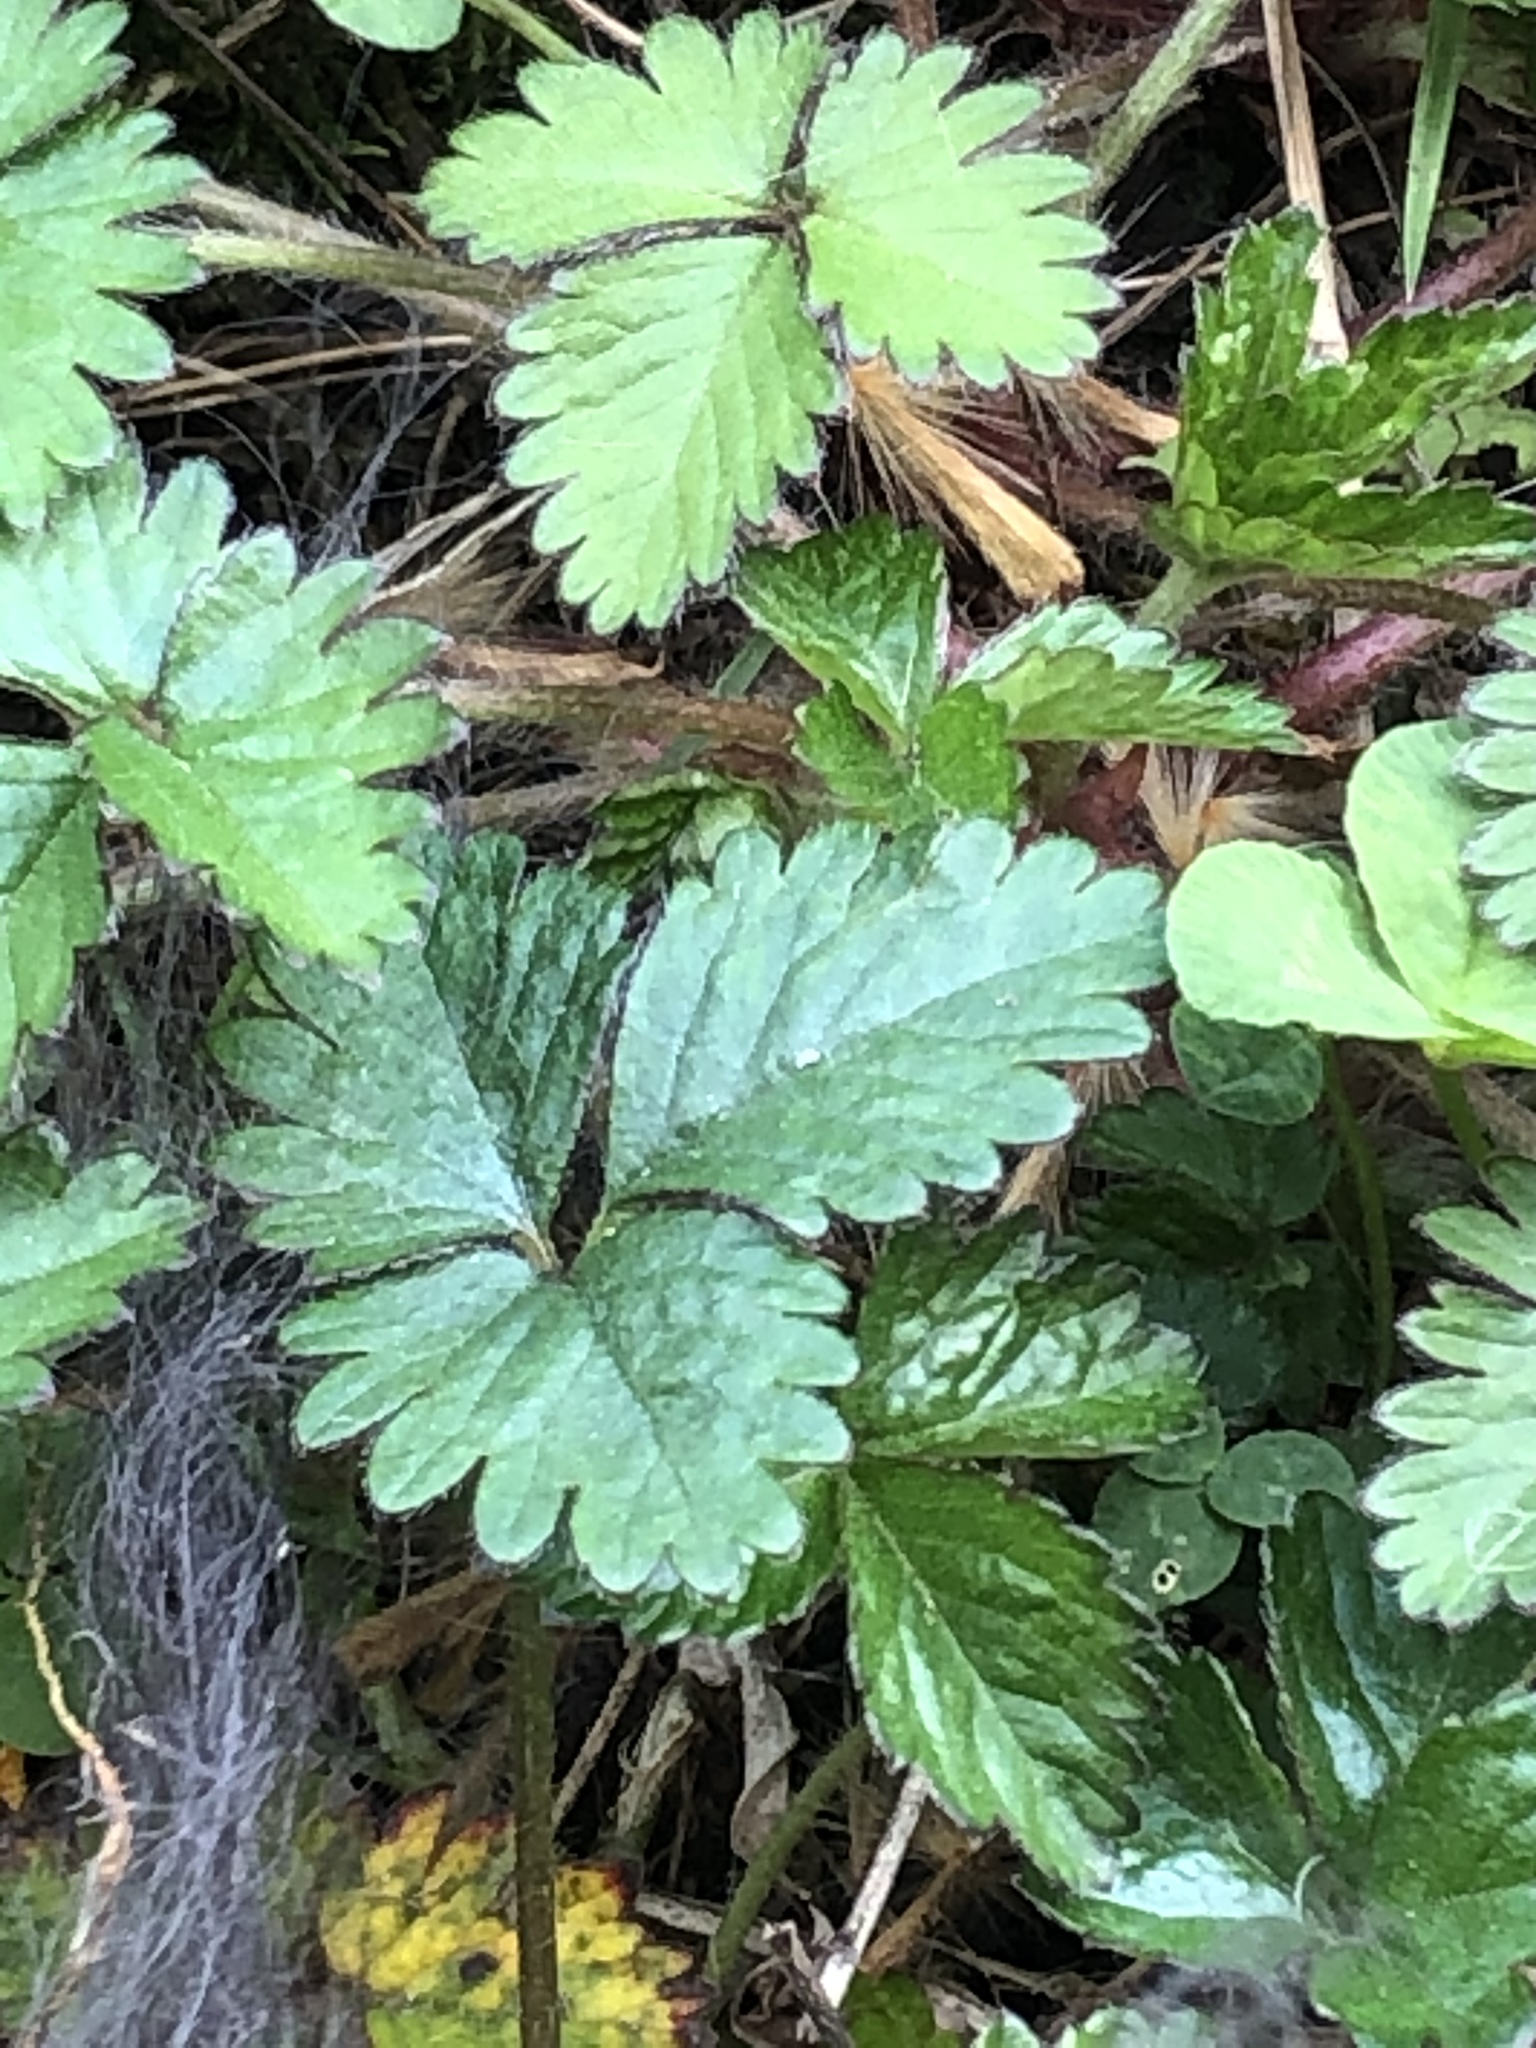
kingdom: Plantae
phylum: Tracheophyta
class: Magnoliopsida
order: Rosales
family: Rosaceae
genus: Potentilla
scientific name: Potentilla indica
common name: Yellow-flowered strawberry
